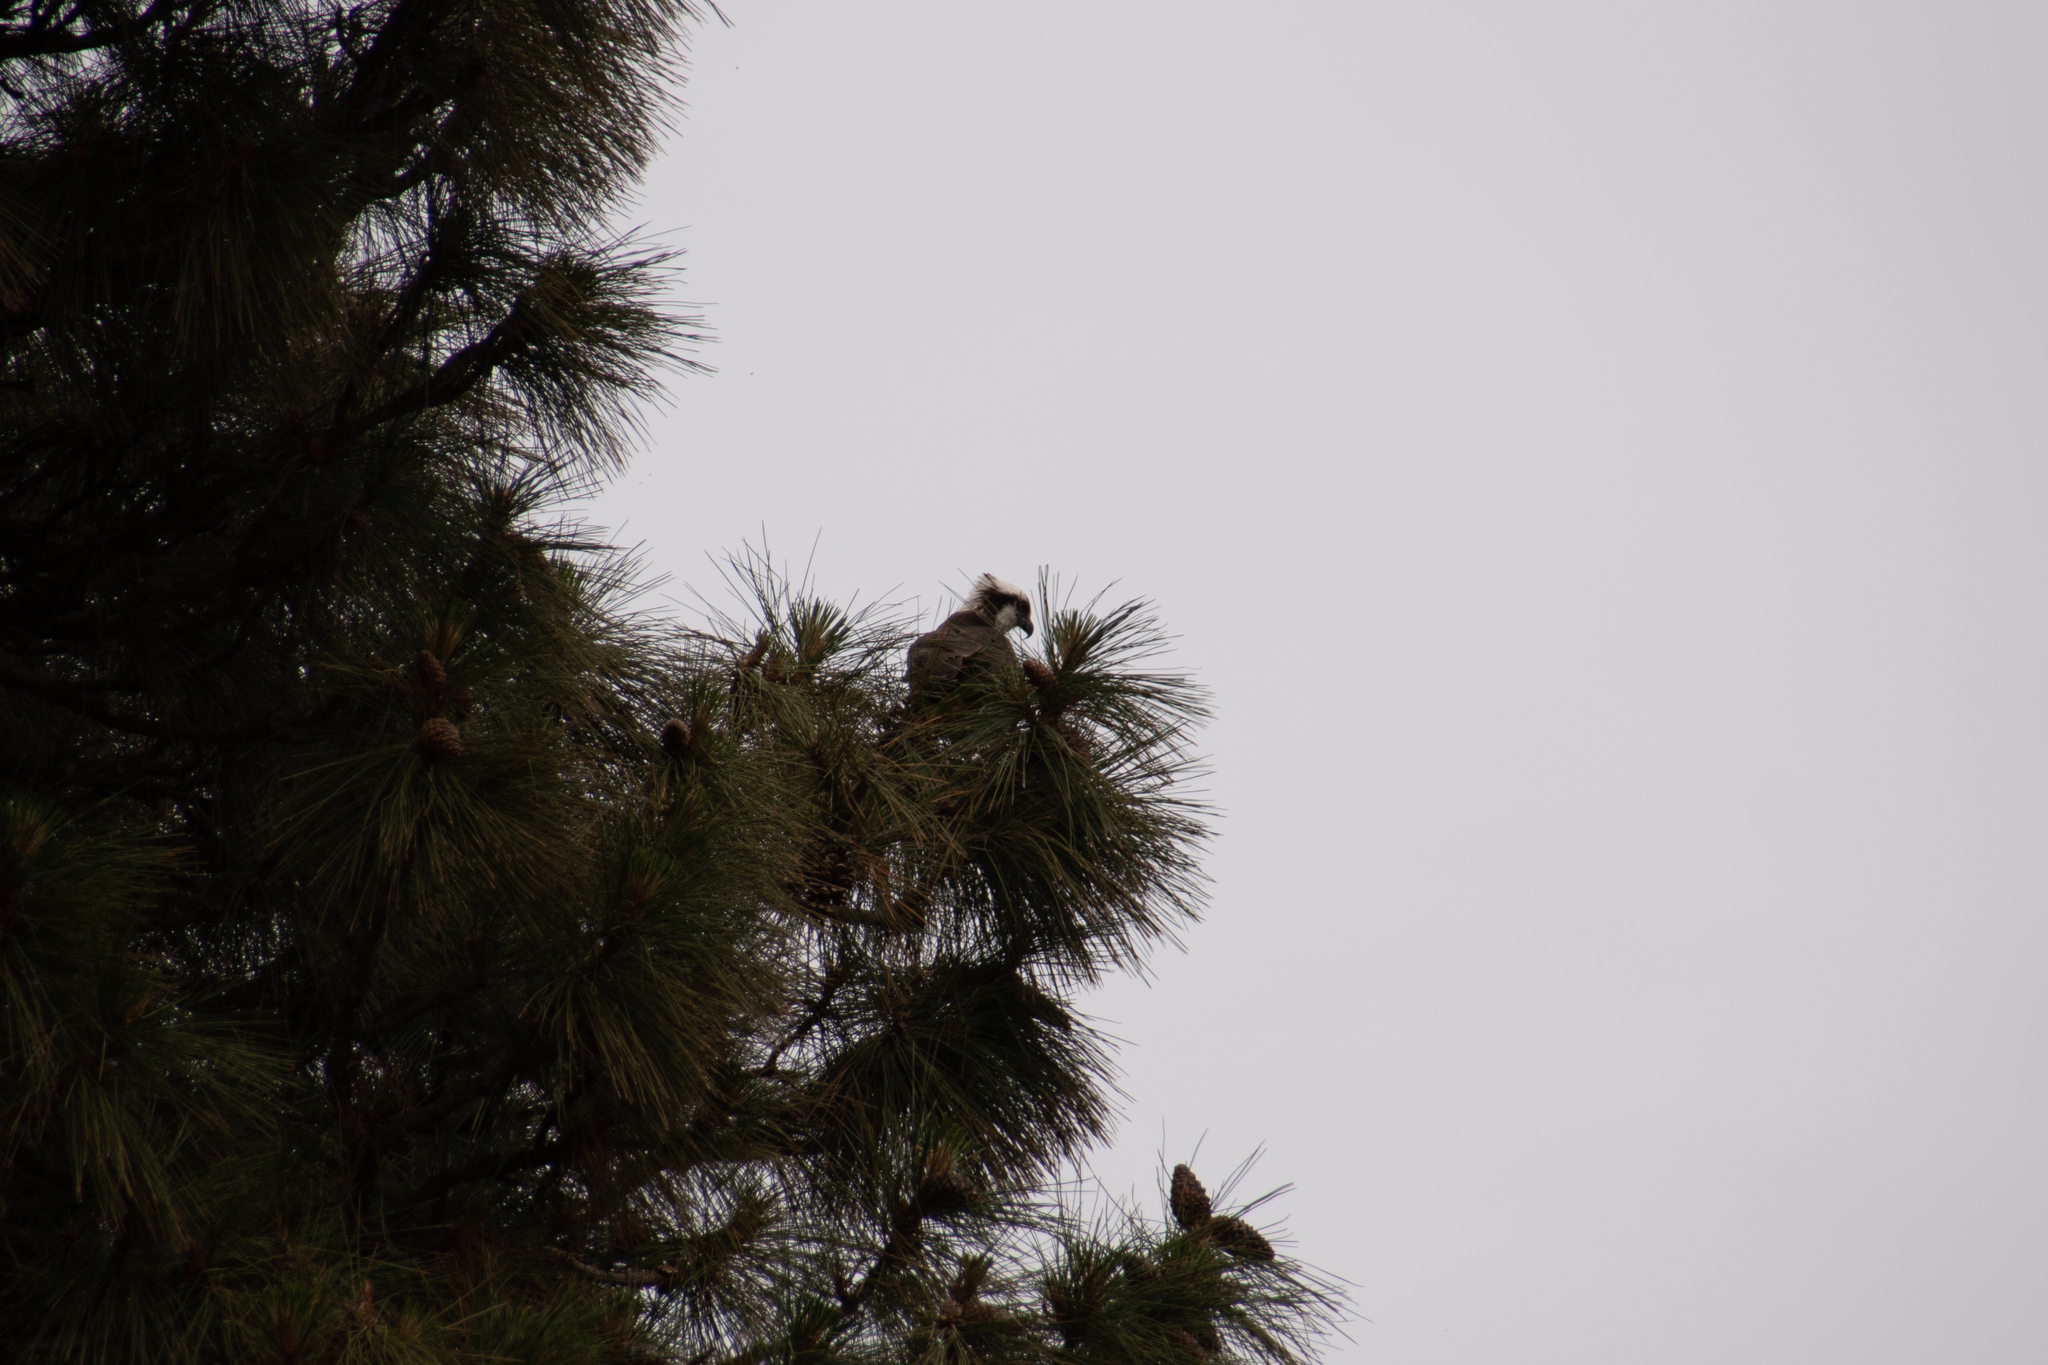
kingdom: Animalia
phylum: Chordata
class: Aves
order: Accipitriformes
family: Pandionidae
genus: Pandion
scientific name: Pandion haliaetus
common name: Osprey
